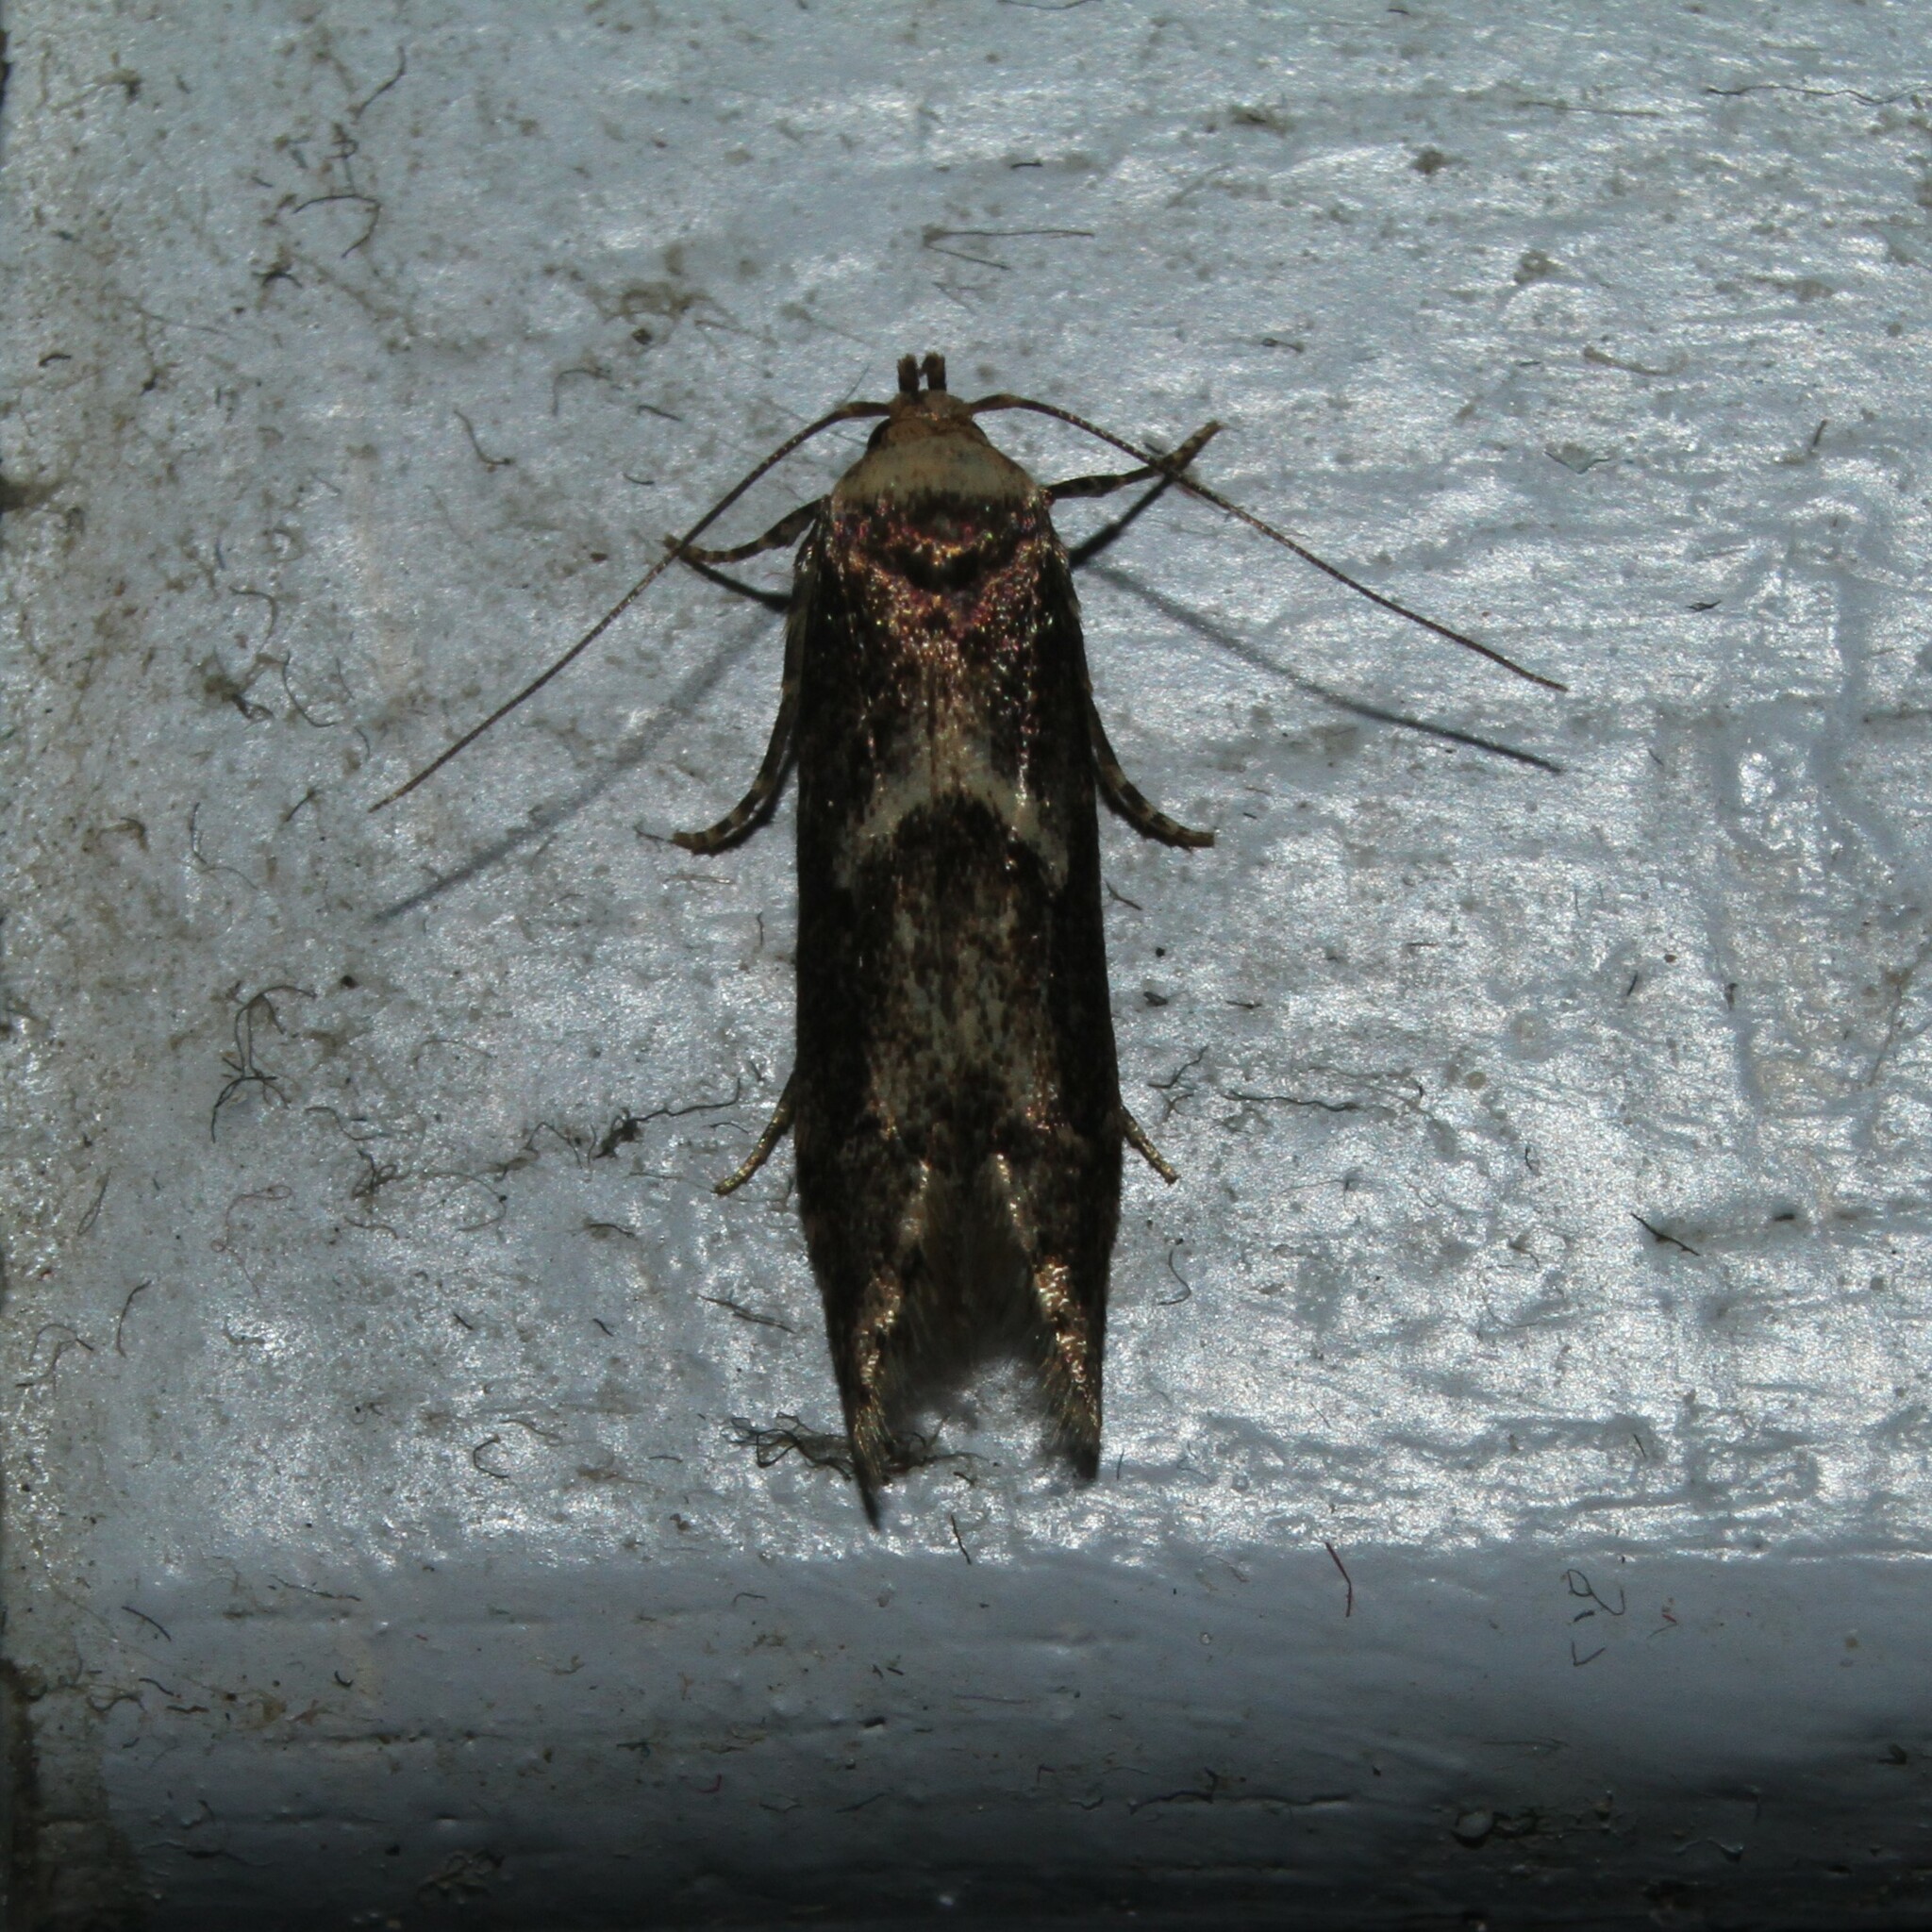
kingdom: Animalia
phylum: Arthropoda
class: Insecta
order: Lepidoptera
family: Blastobasidae
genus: Blastobasis
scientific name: Blastobasis adustella
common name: Dingy dowd
